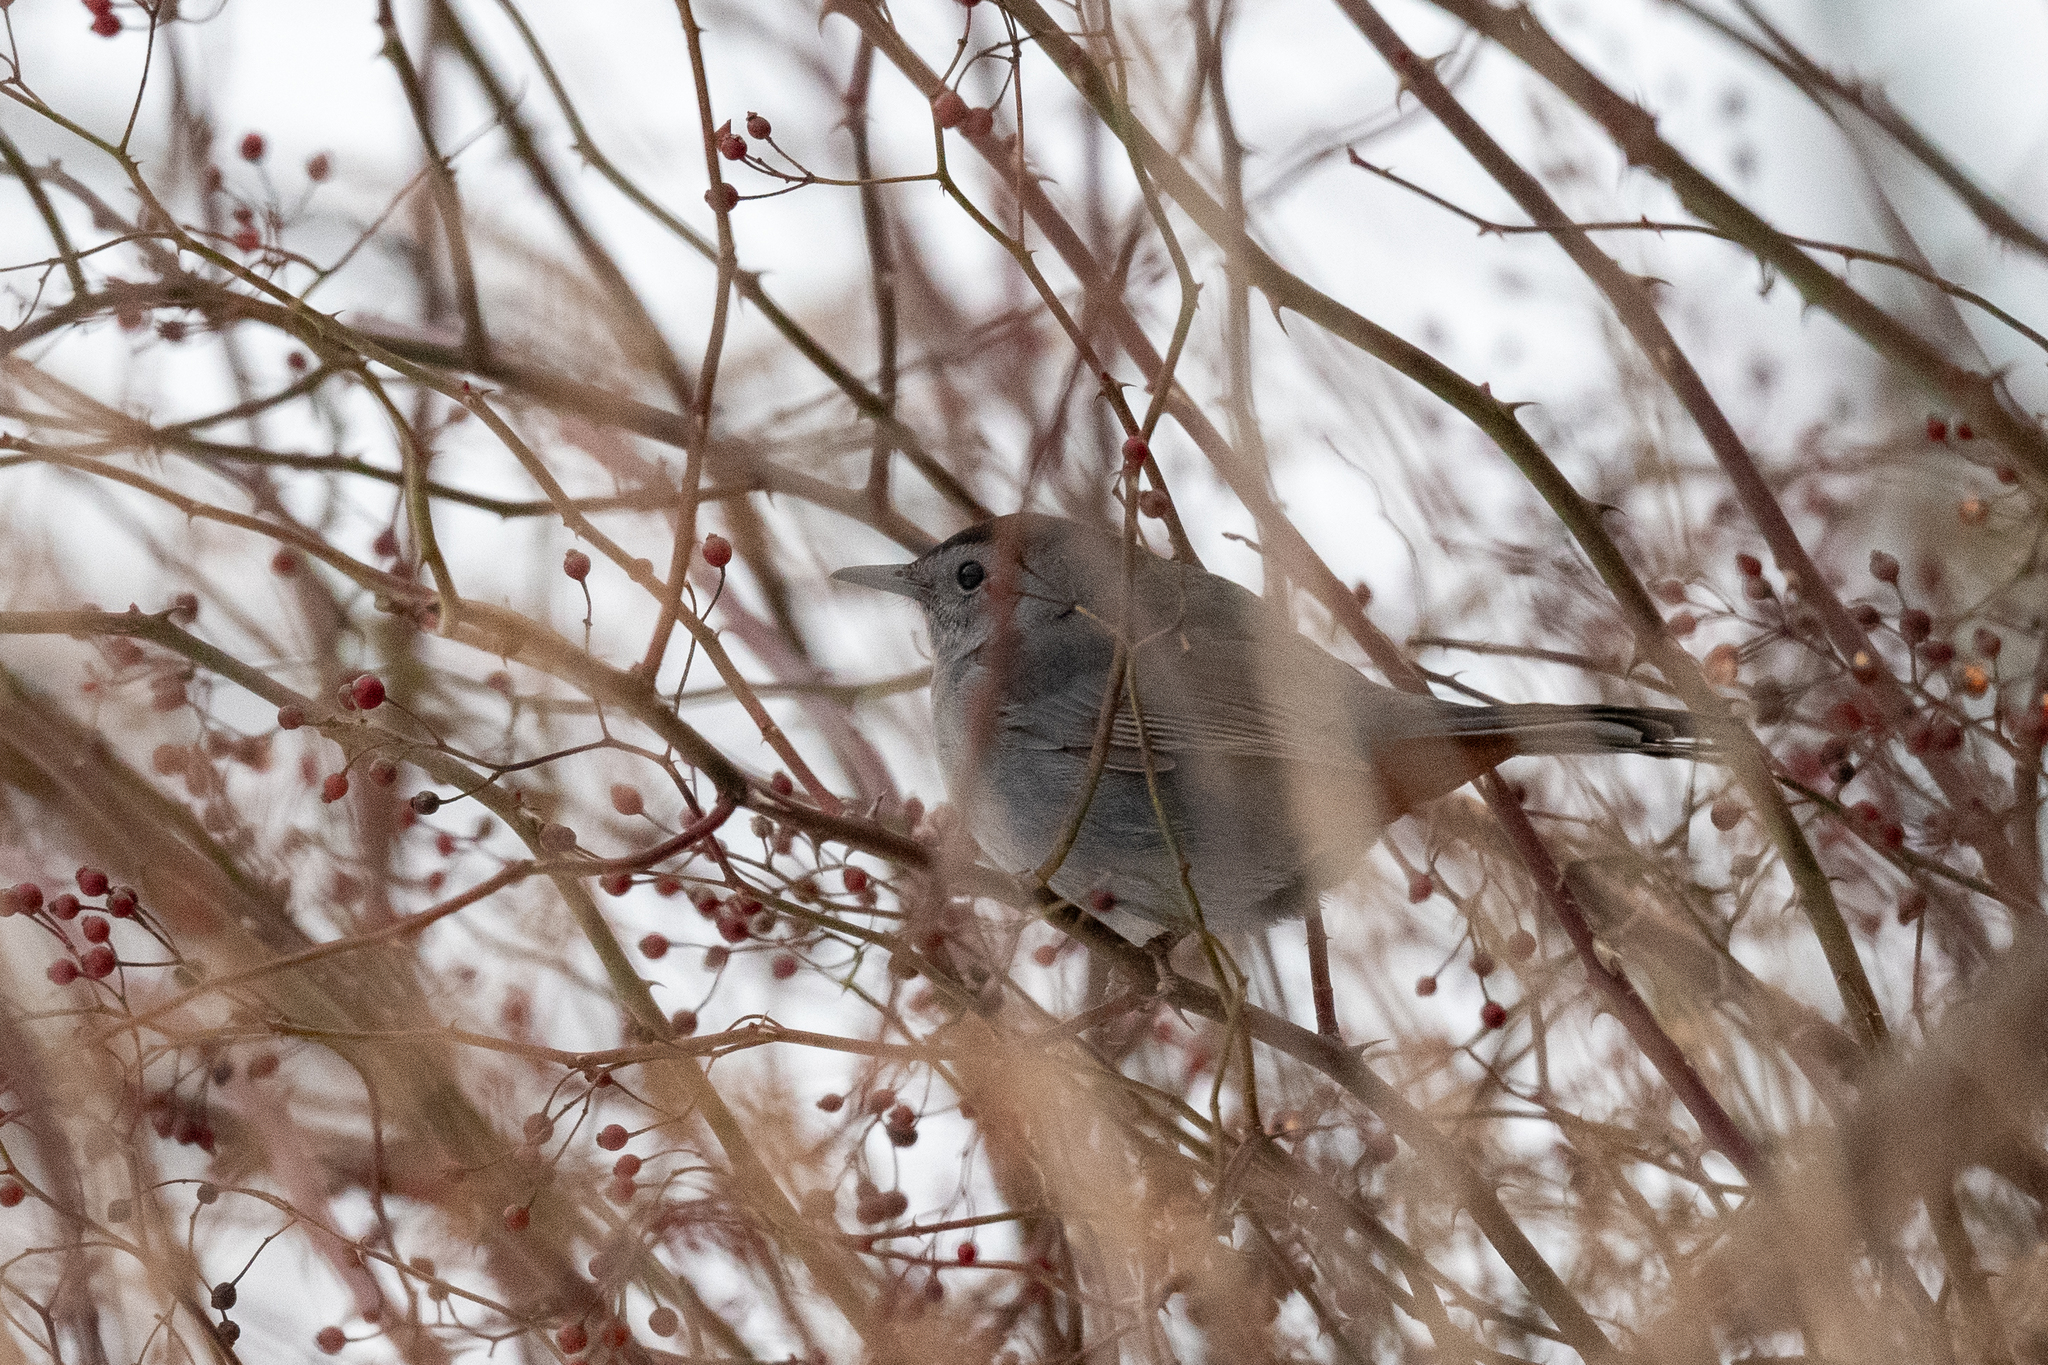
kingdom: Animalia
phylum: Chordata
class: Aves
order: Passeriformes
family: Mimidae
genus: Dumetella
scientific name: Dumetella carolinensis
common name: Gray catbird
